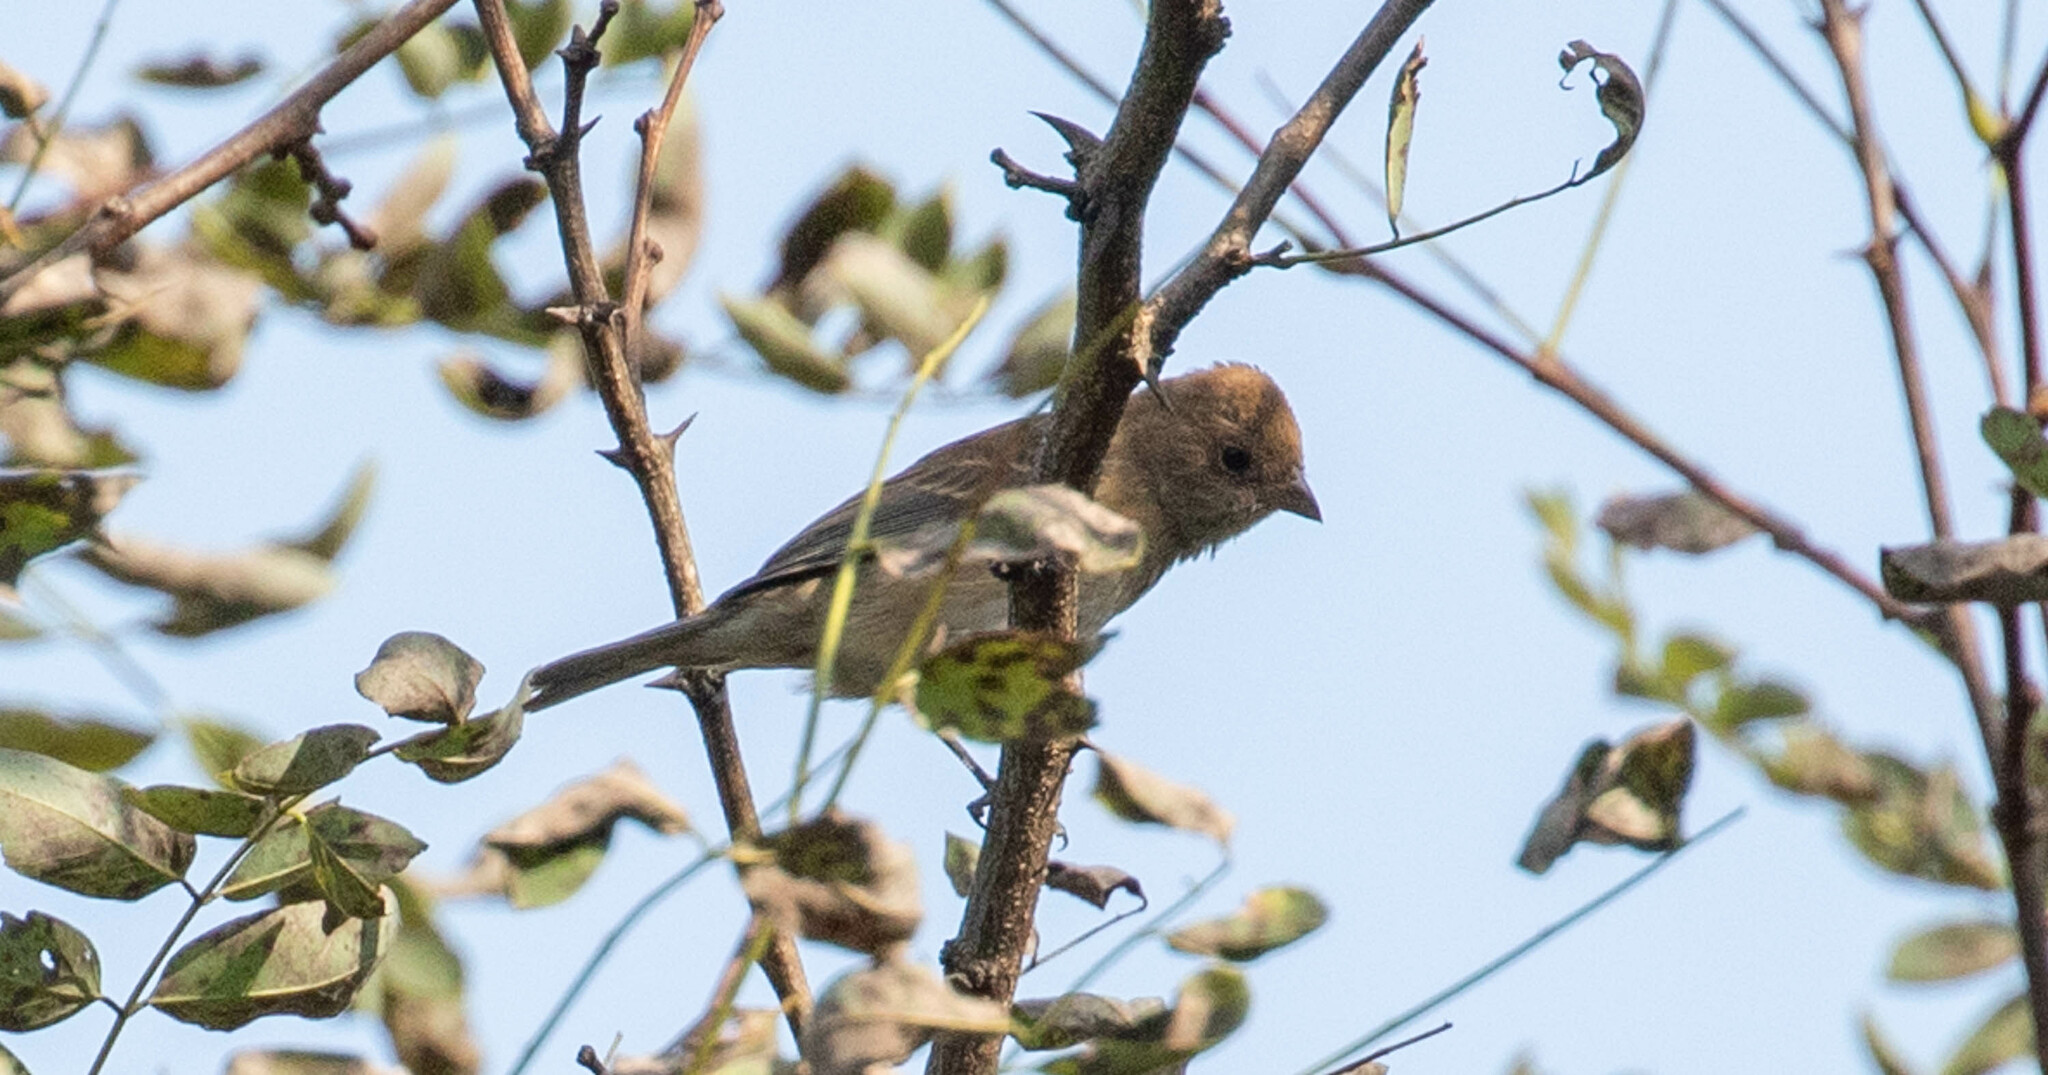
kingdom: Animalia
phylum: Chordata
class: Aves
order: Passeriformes
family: Cardinalidae
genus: Passerina
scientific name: Passerina cyanea
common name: Indigo bunting
